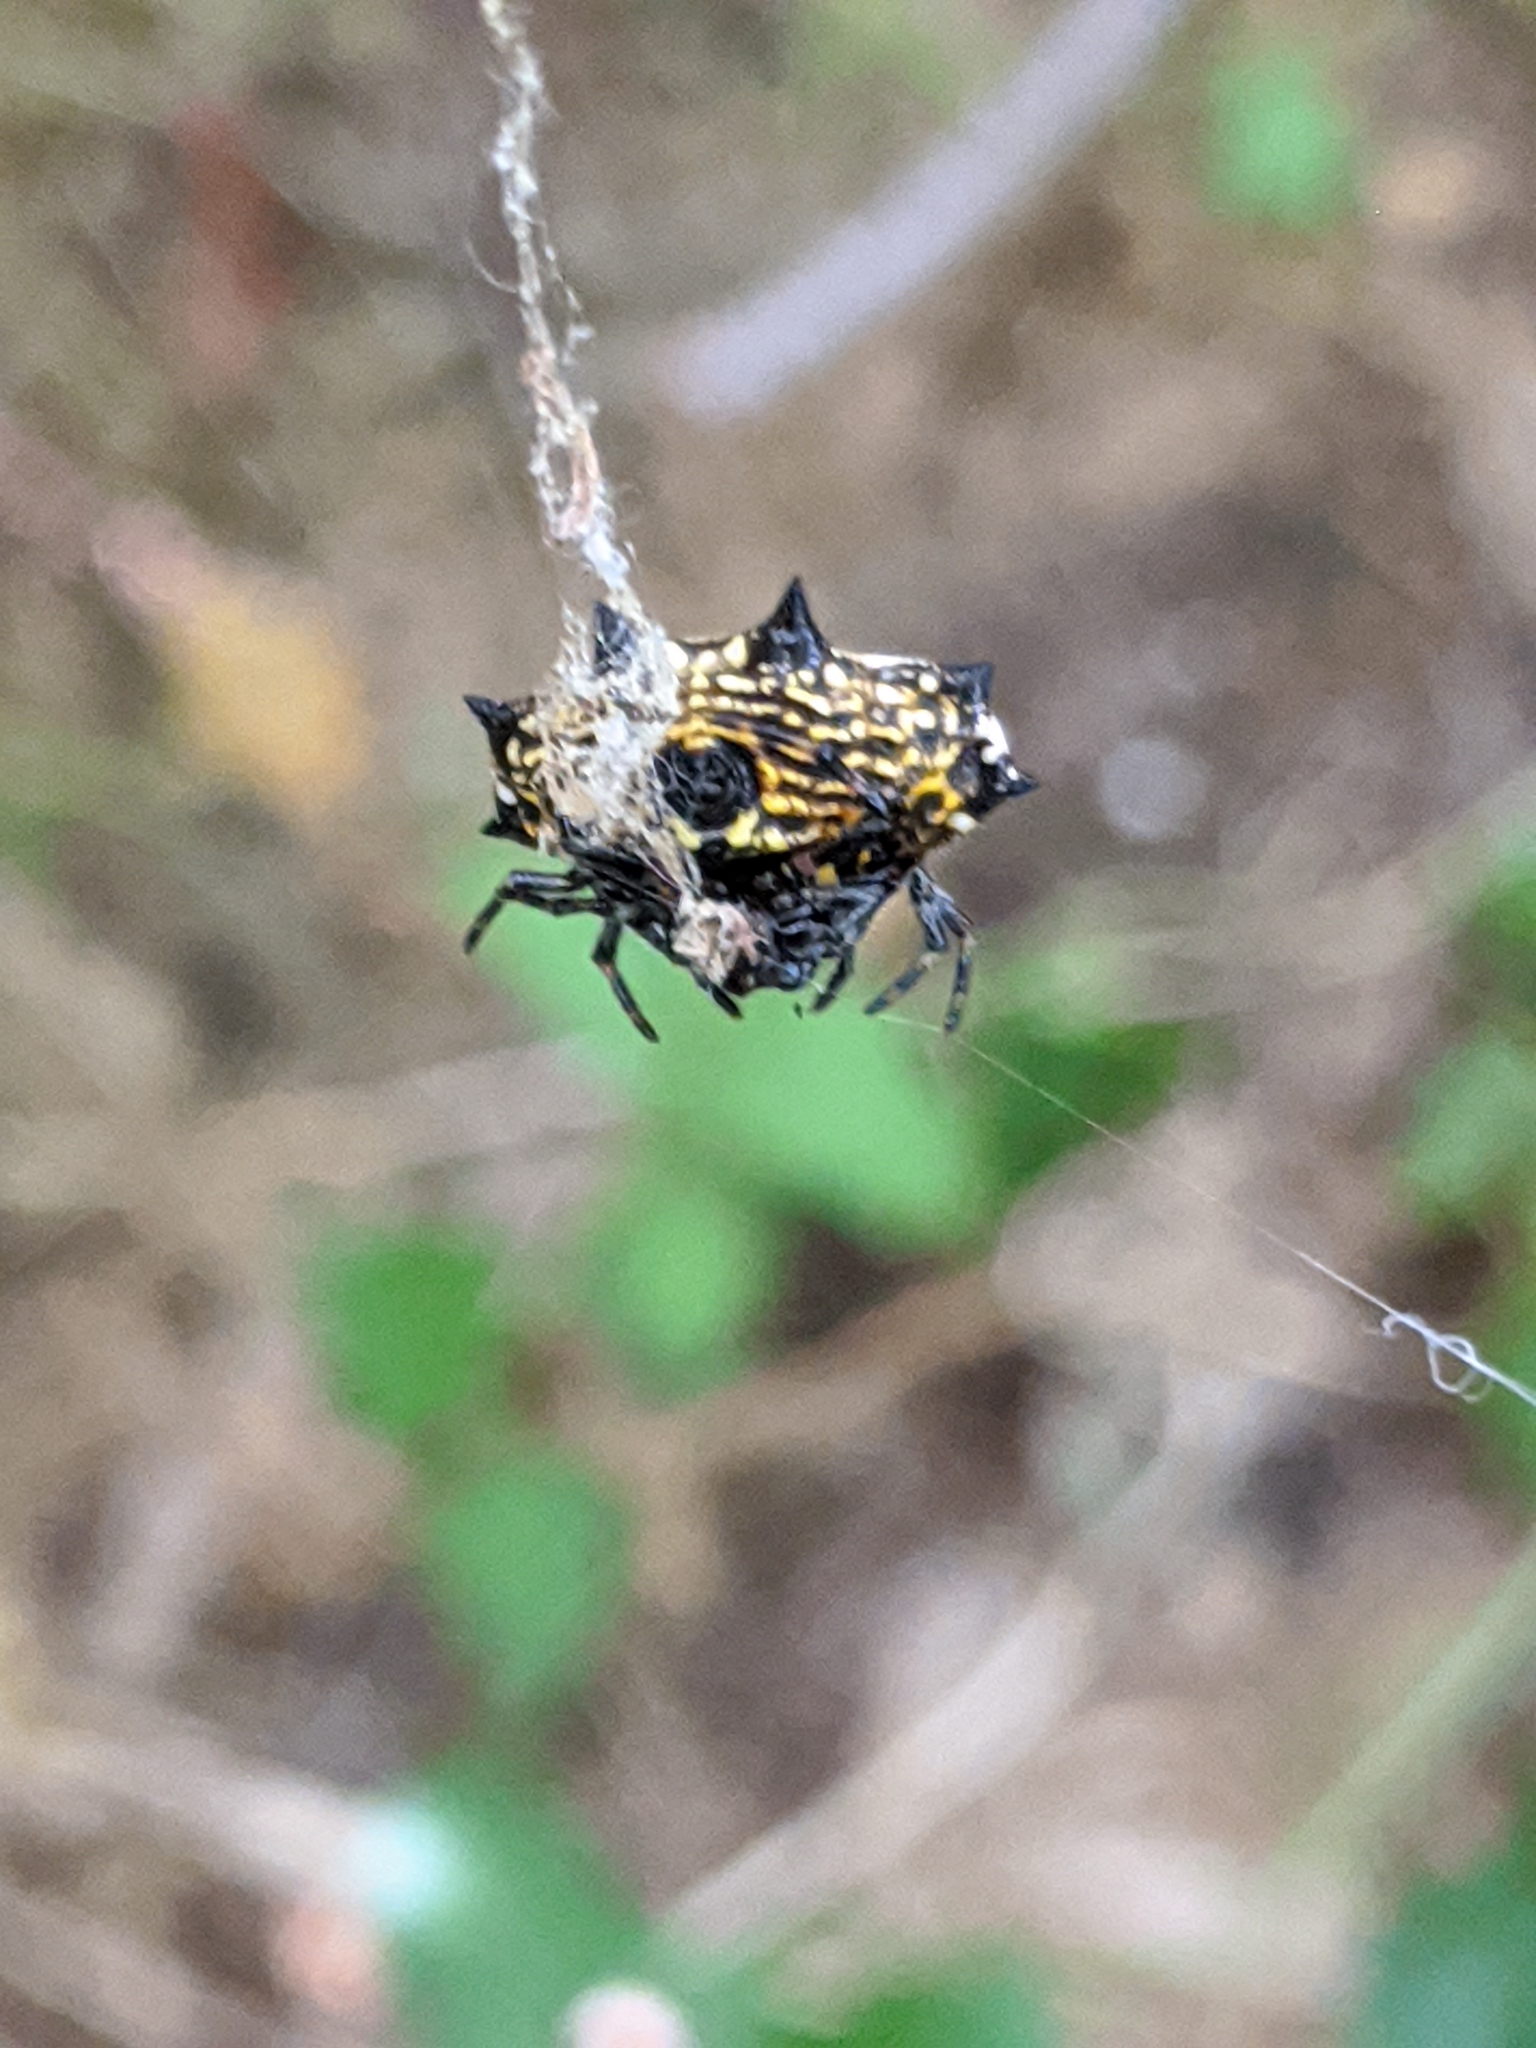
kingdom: Animalia
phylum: Arthropoda
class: Arachnida
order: Araneae
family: Araneidae
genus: Gasteracantha
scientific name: Gasteracantha cancriformis
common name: Orb weavers
